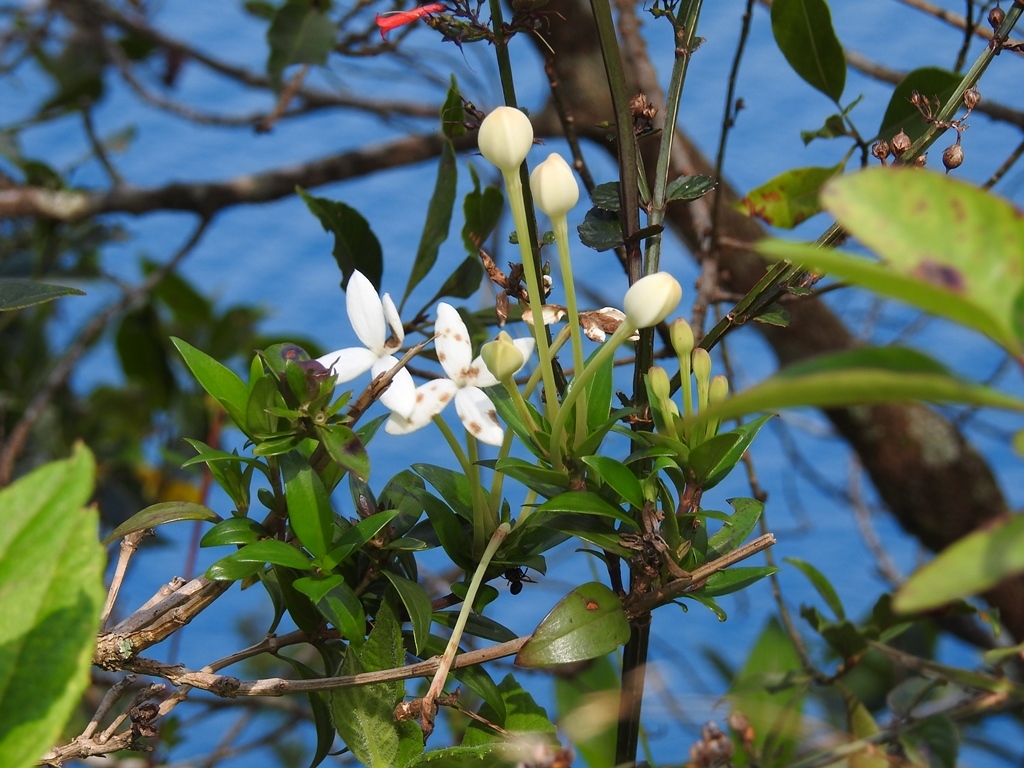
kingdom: Plantae
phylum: Tracheophyta
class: Magnoliopsida
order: Gentianales
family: Rubiaceae
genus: Bouvardia
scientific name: Bouvardia longiflora
